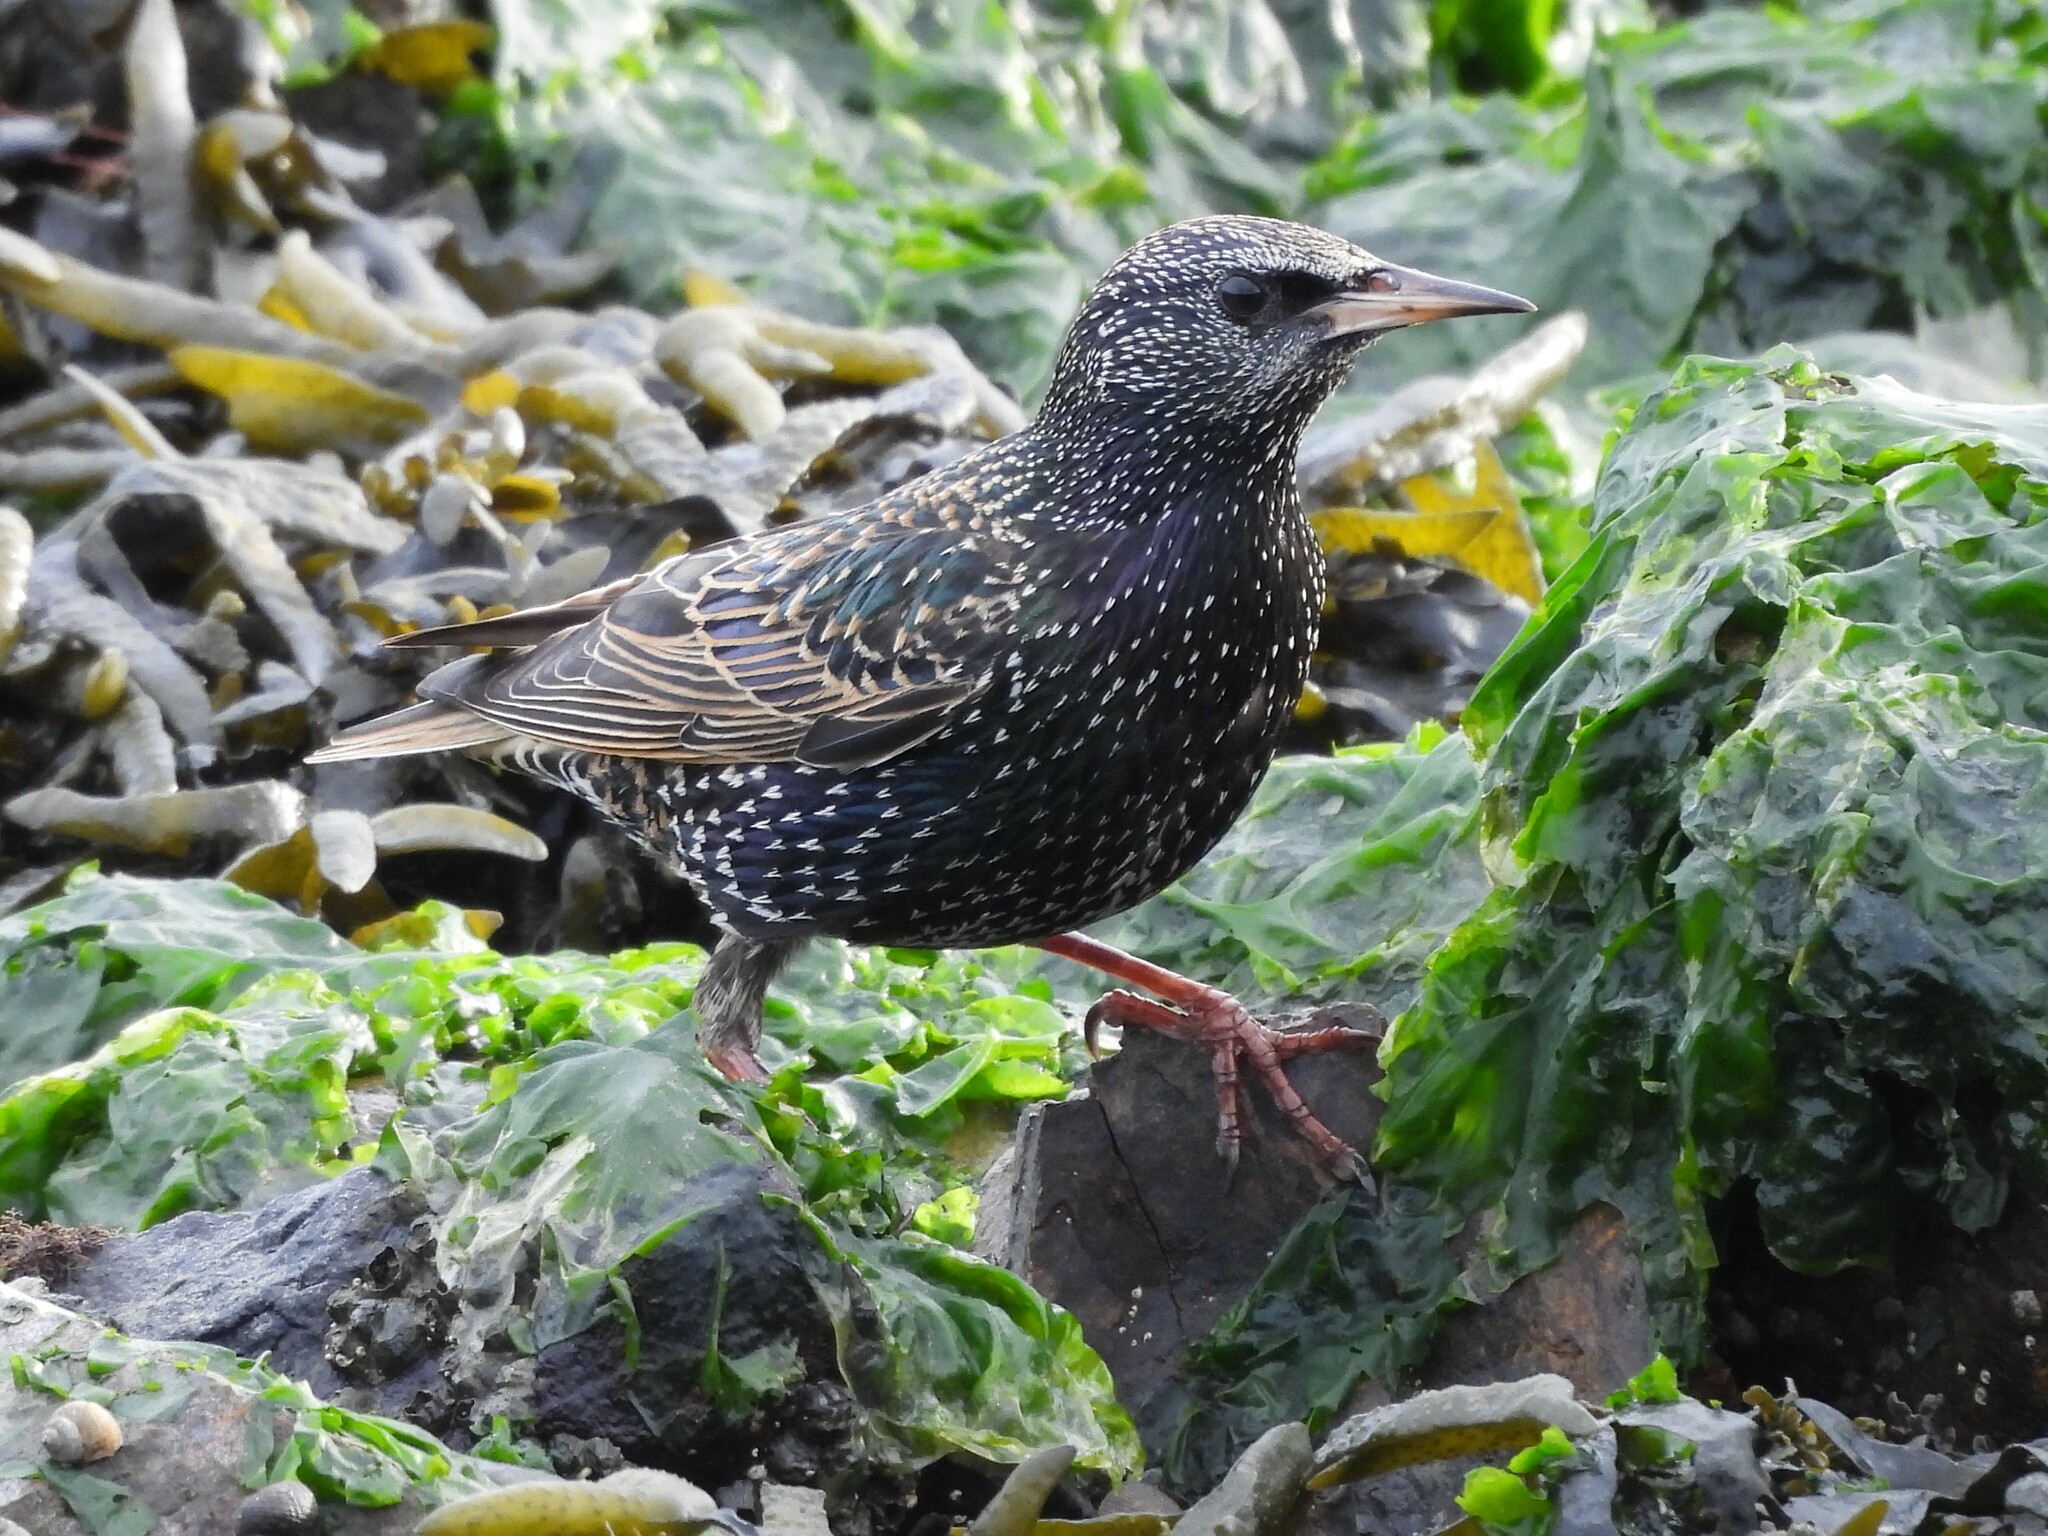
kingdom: Animalia
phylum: Chordata
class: Aves
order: Passeriformes
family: Sturnidae
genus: Sturnus
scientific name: Sturnus vulgaris
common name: Common starling
